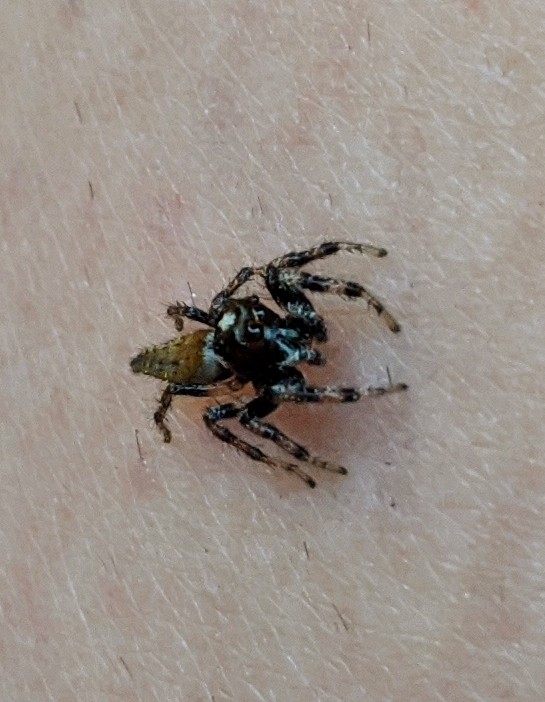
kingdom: Animalia
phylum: Arthropoda
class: Arachnida
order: Araneae
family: Salticidae
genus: Colonus
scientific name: Colonus hesperus
